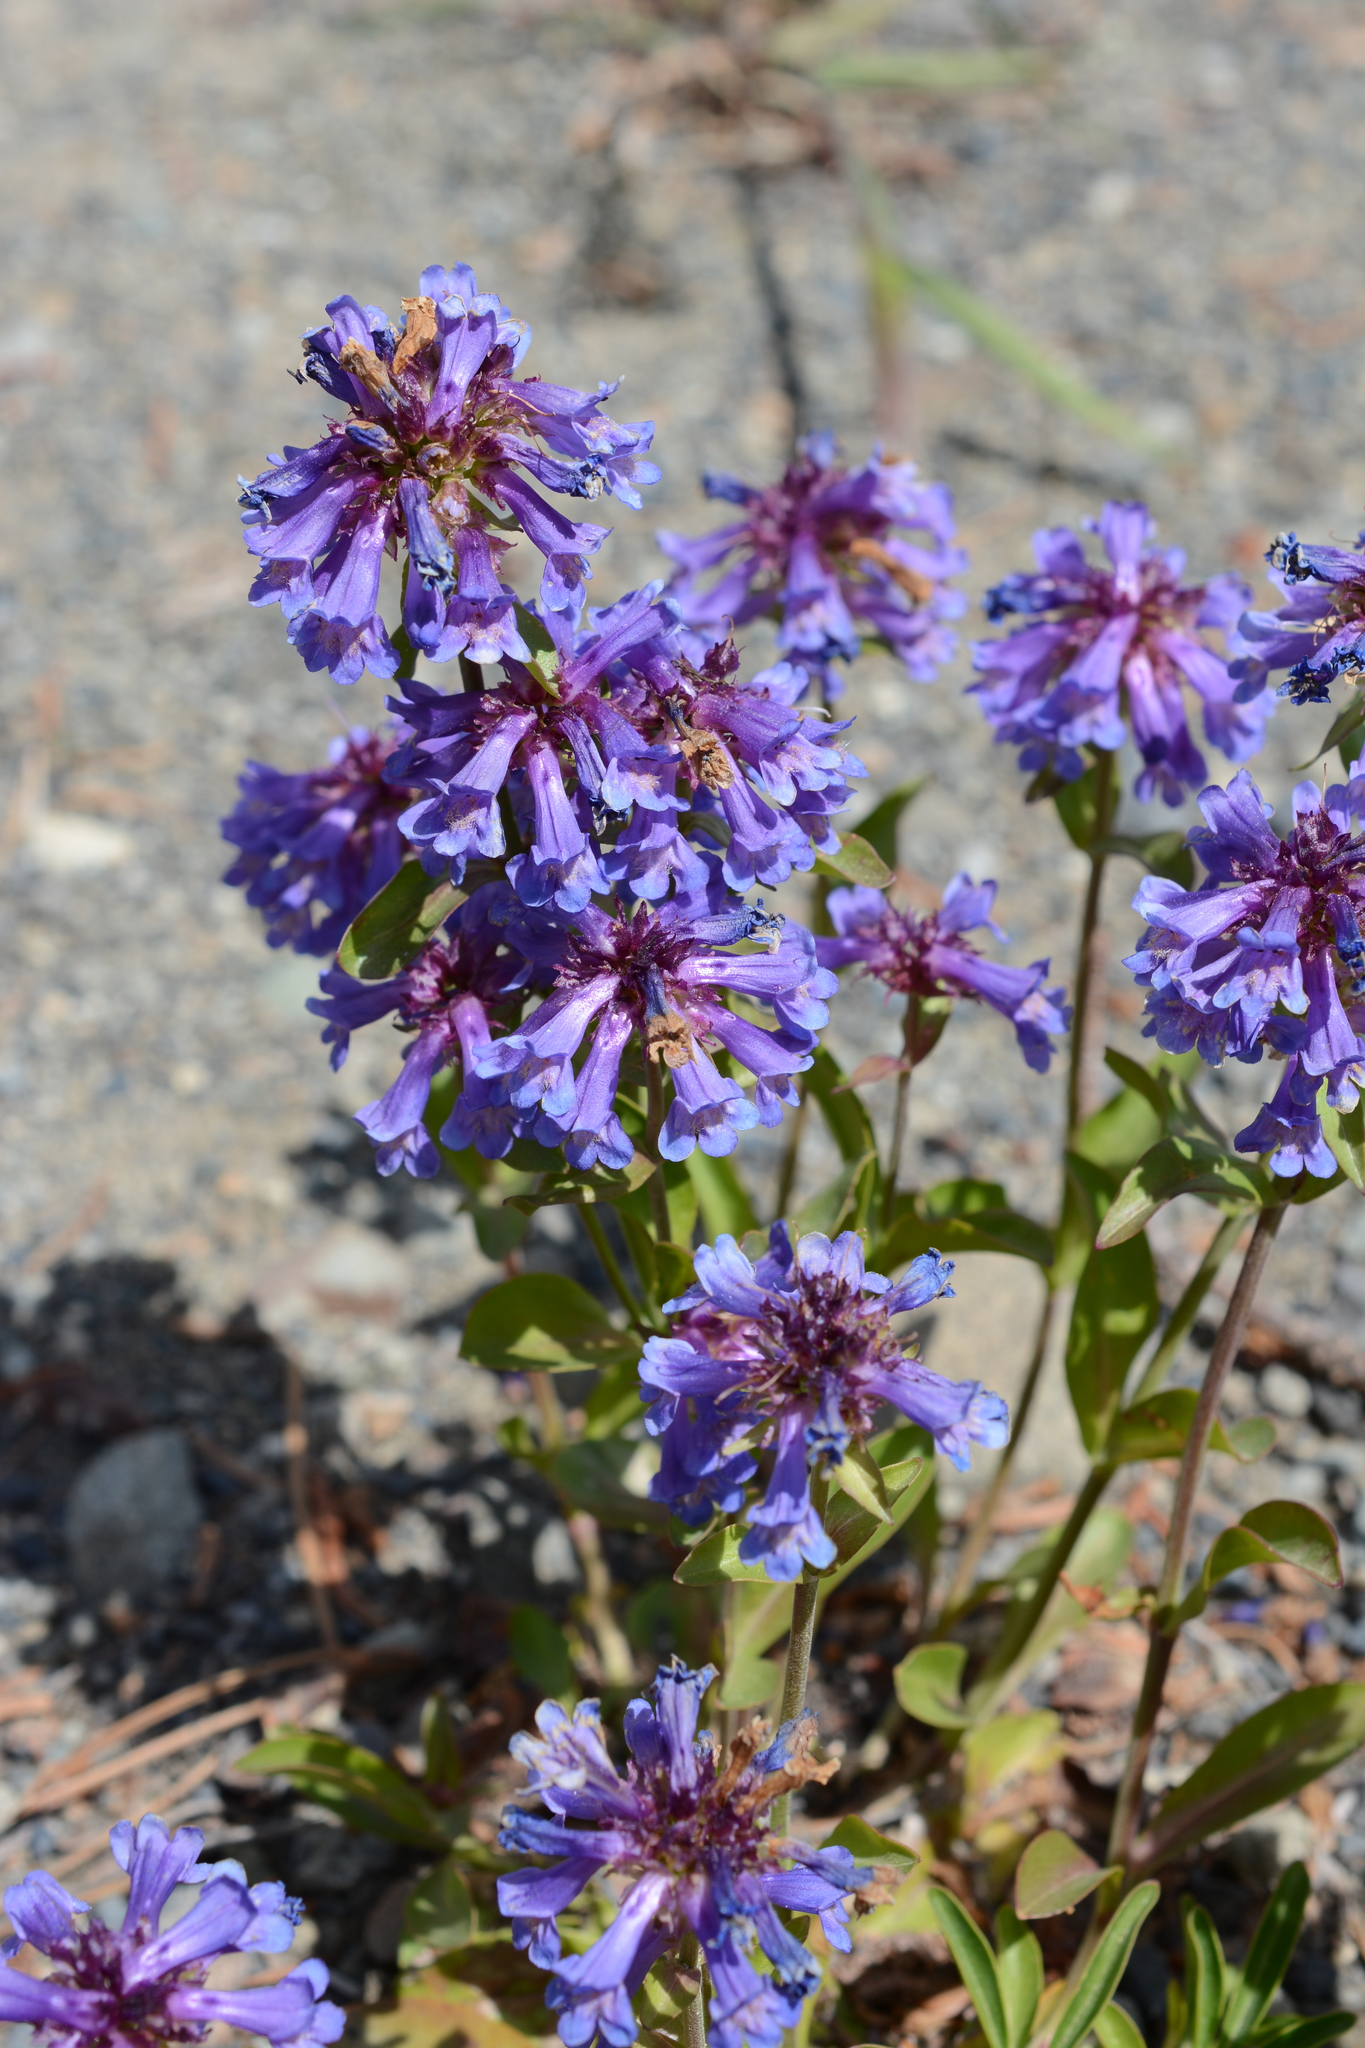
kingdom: Plantae
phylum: Tracheophyta
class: Magnoliopsida
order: Lamiales
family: Plantaginaceae
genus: Penstemon
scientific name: Penstemon procerus
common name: Small-flower penstemon
